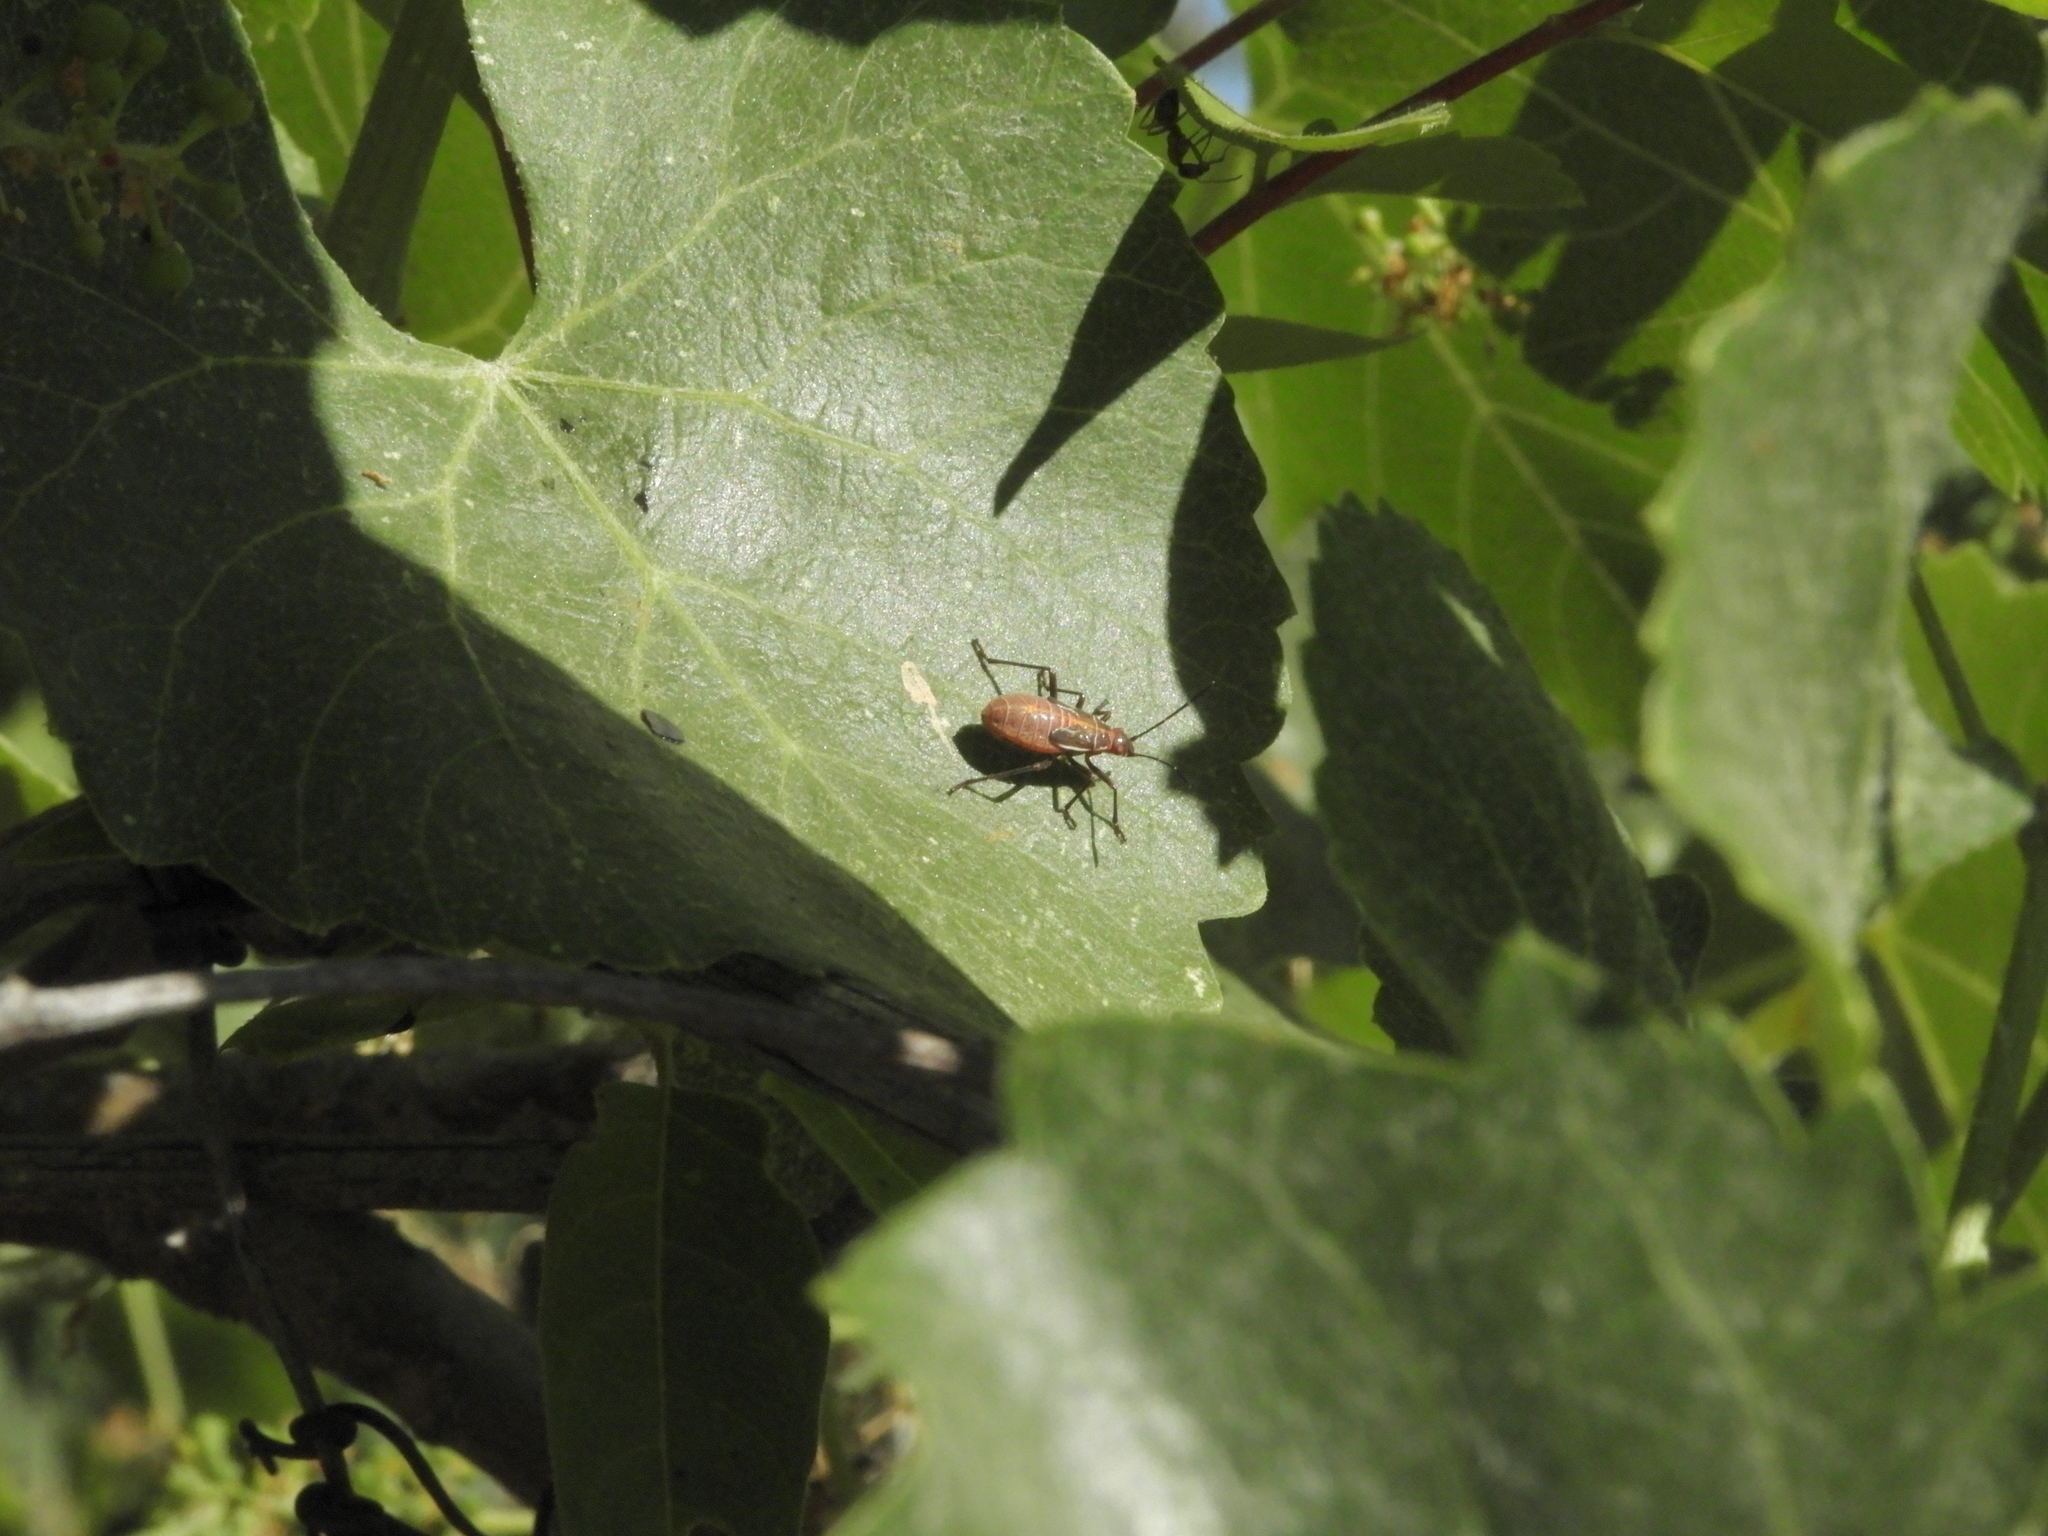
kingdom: Animalia
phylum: Arthropoda
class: Insecta
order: Hemiptera
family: Rhopalidae
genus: Boisea
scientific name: Boisea rubrolineata
